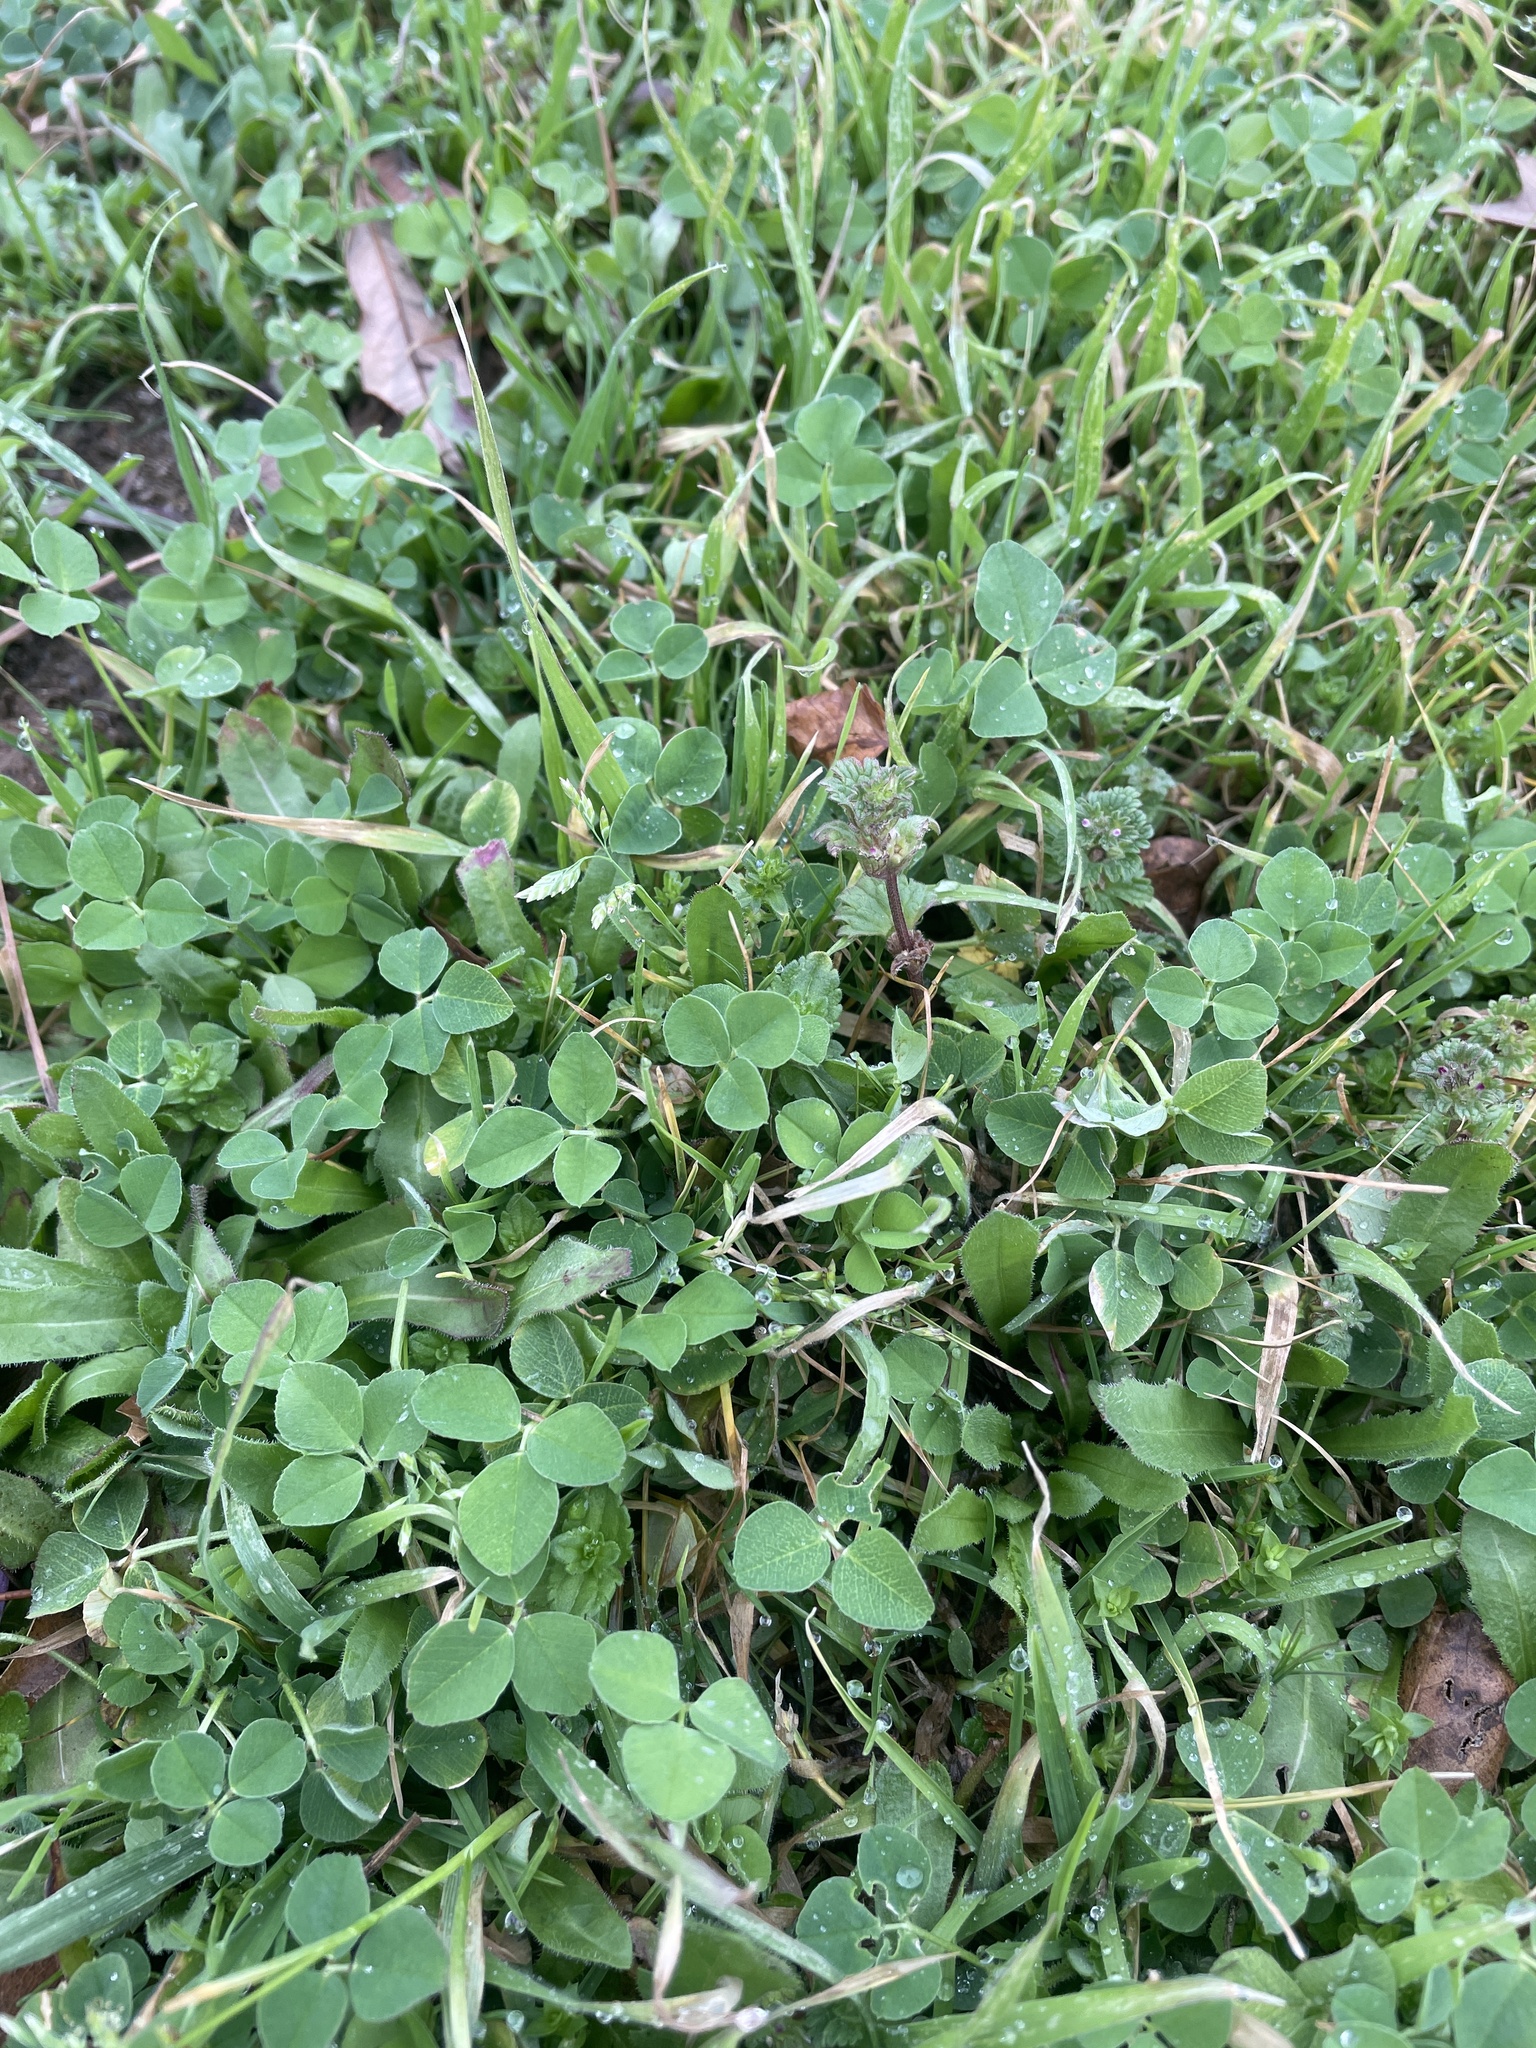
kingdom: Plantae
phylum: Tracheophyta
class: Liliopsida
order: Poales
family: Poaceae
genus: Poa
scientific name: Poa annua
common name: Annual bluegrass
